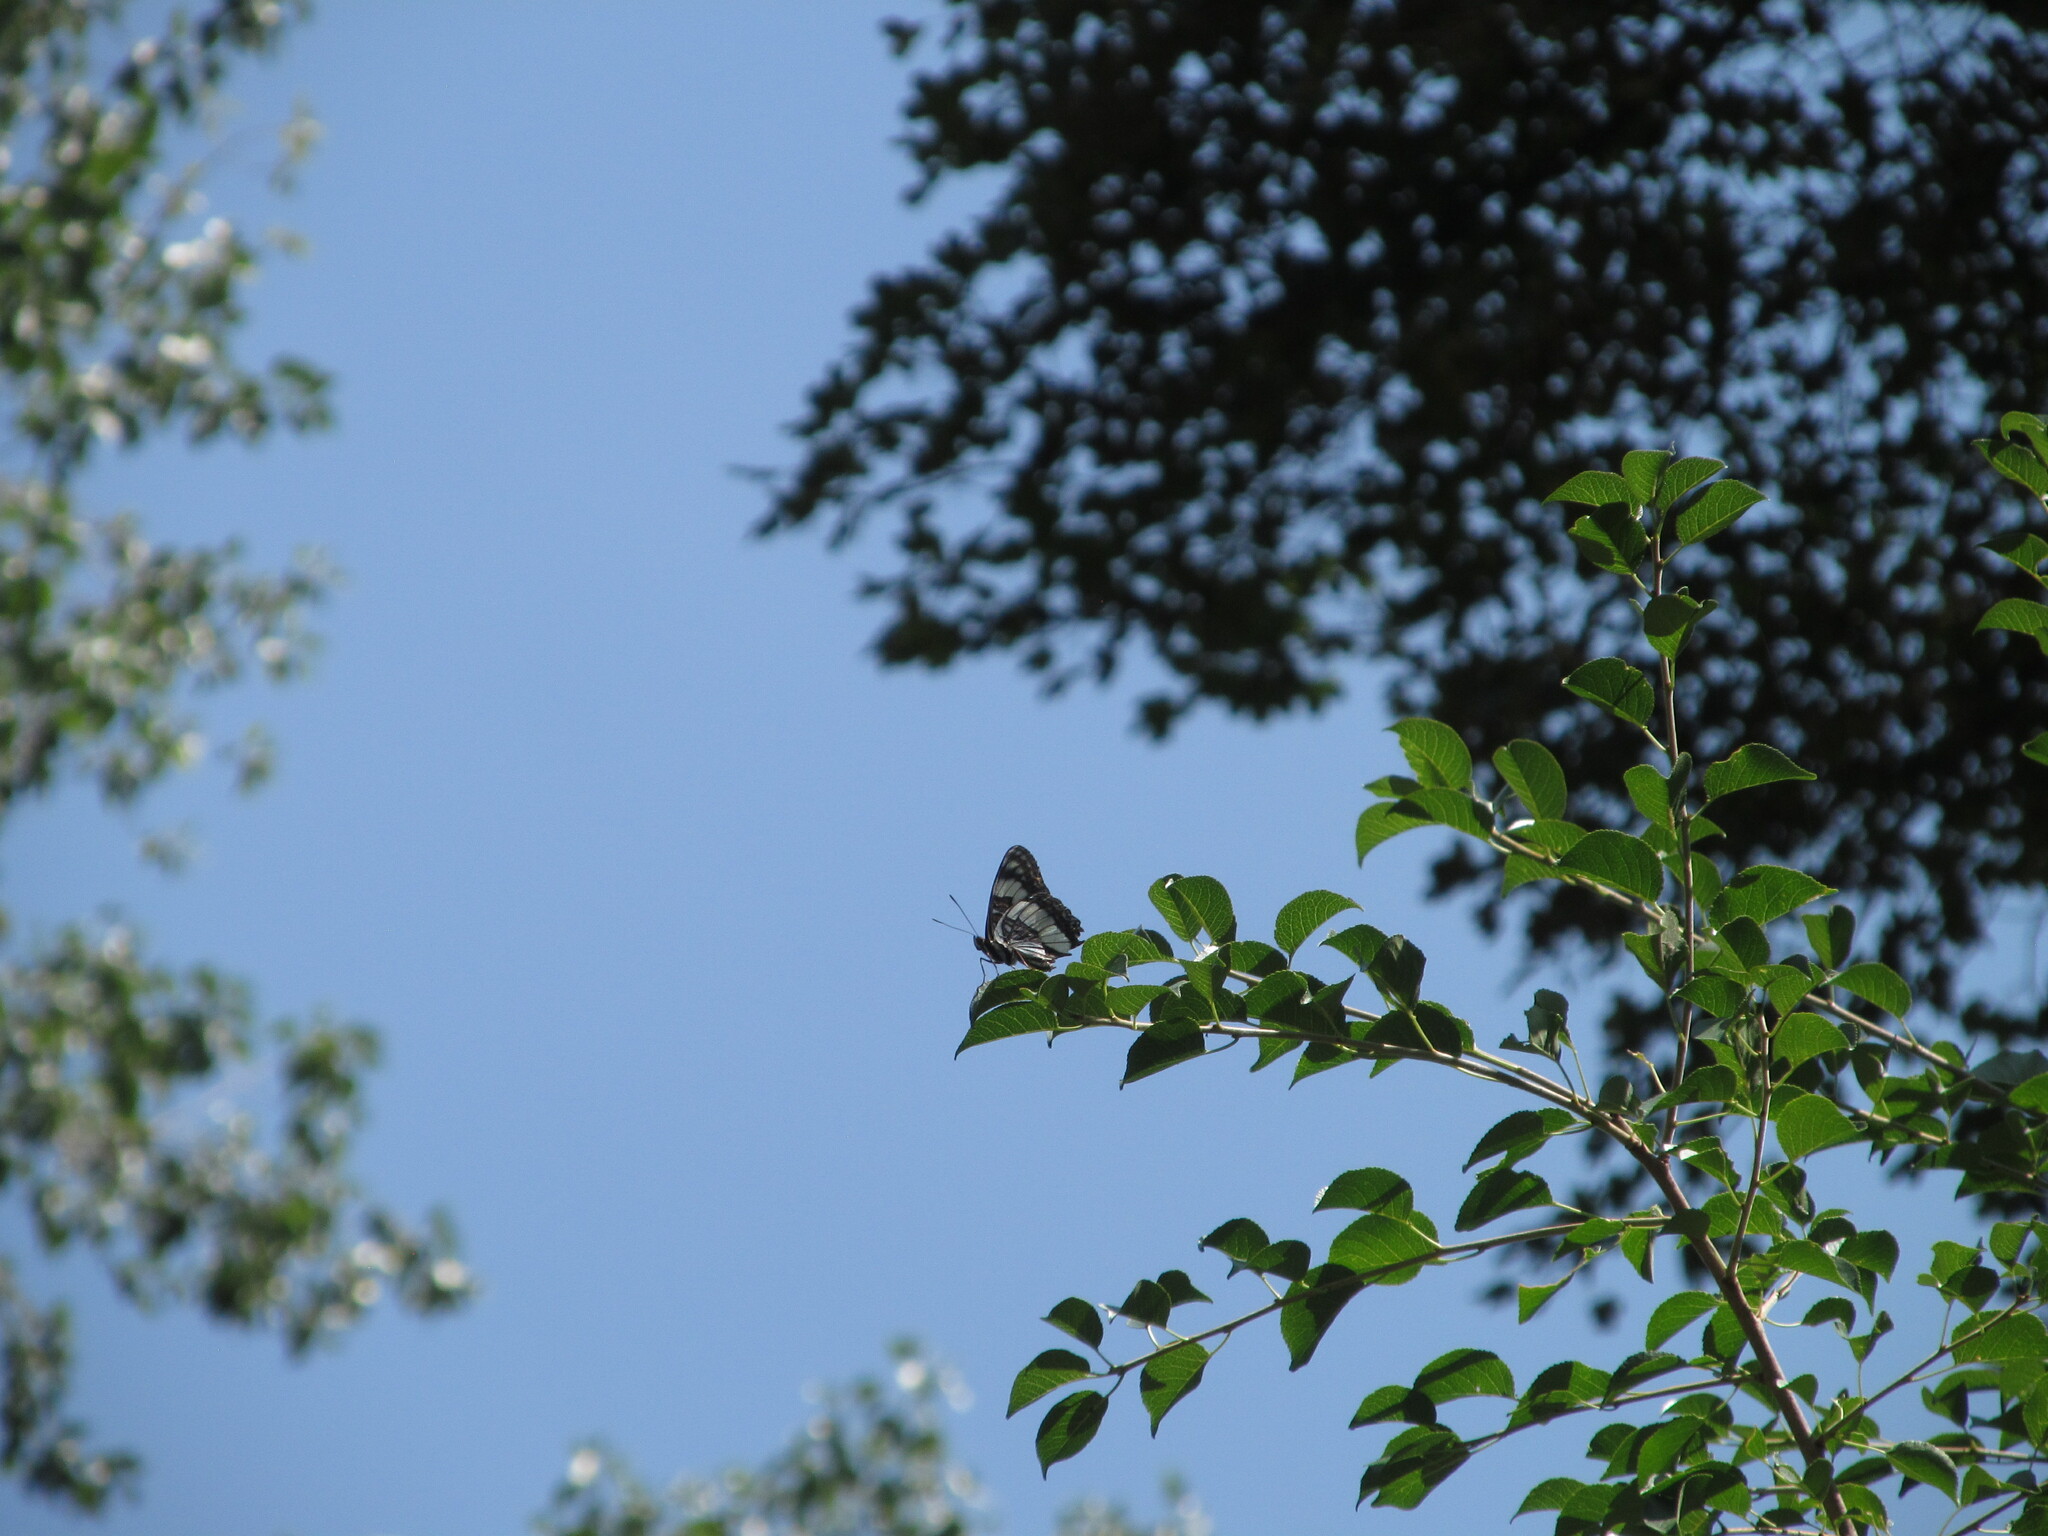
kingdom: Animalia
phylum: Arthropoda
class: Insecta
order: Lepidoptera
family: Nymphalidae
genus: Limenitis
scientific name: Limenitis weidemeyerii
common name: Weidemeyer's admiral
